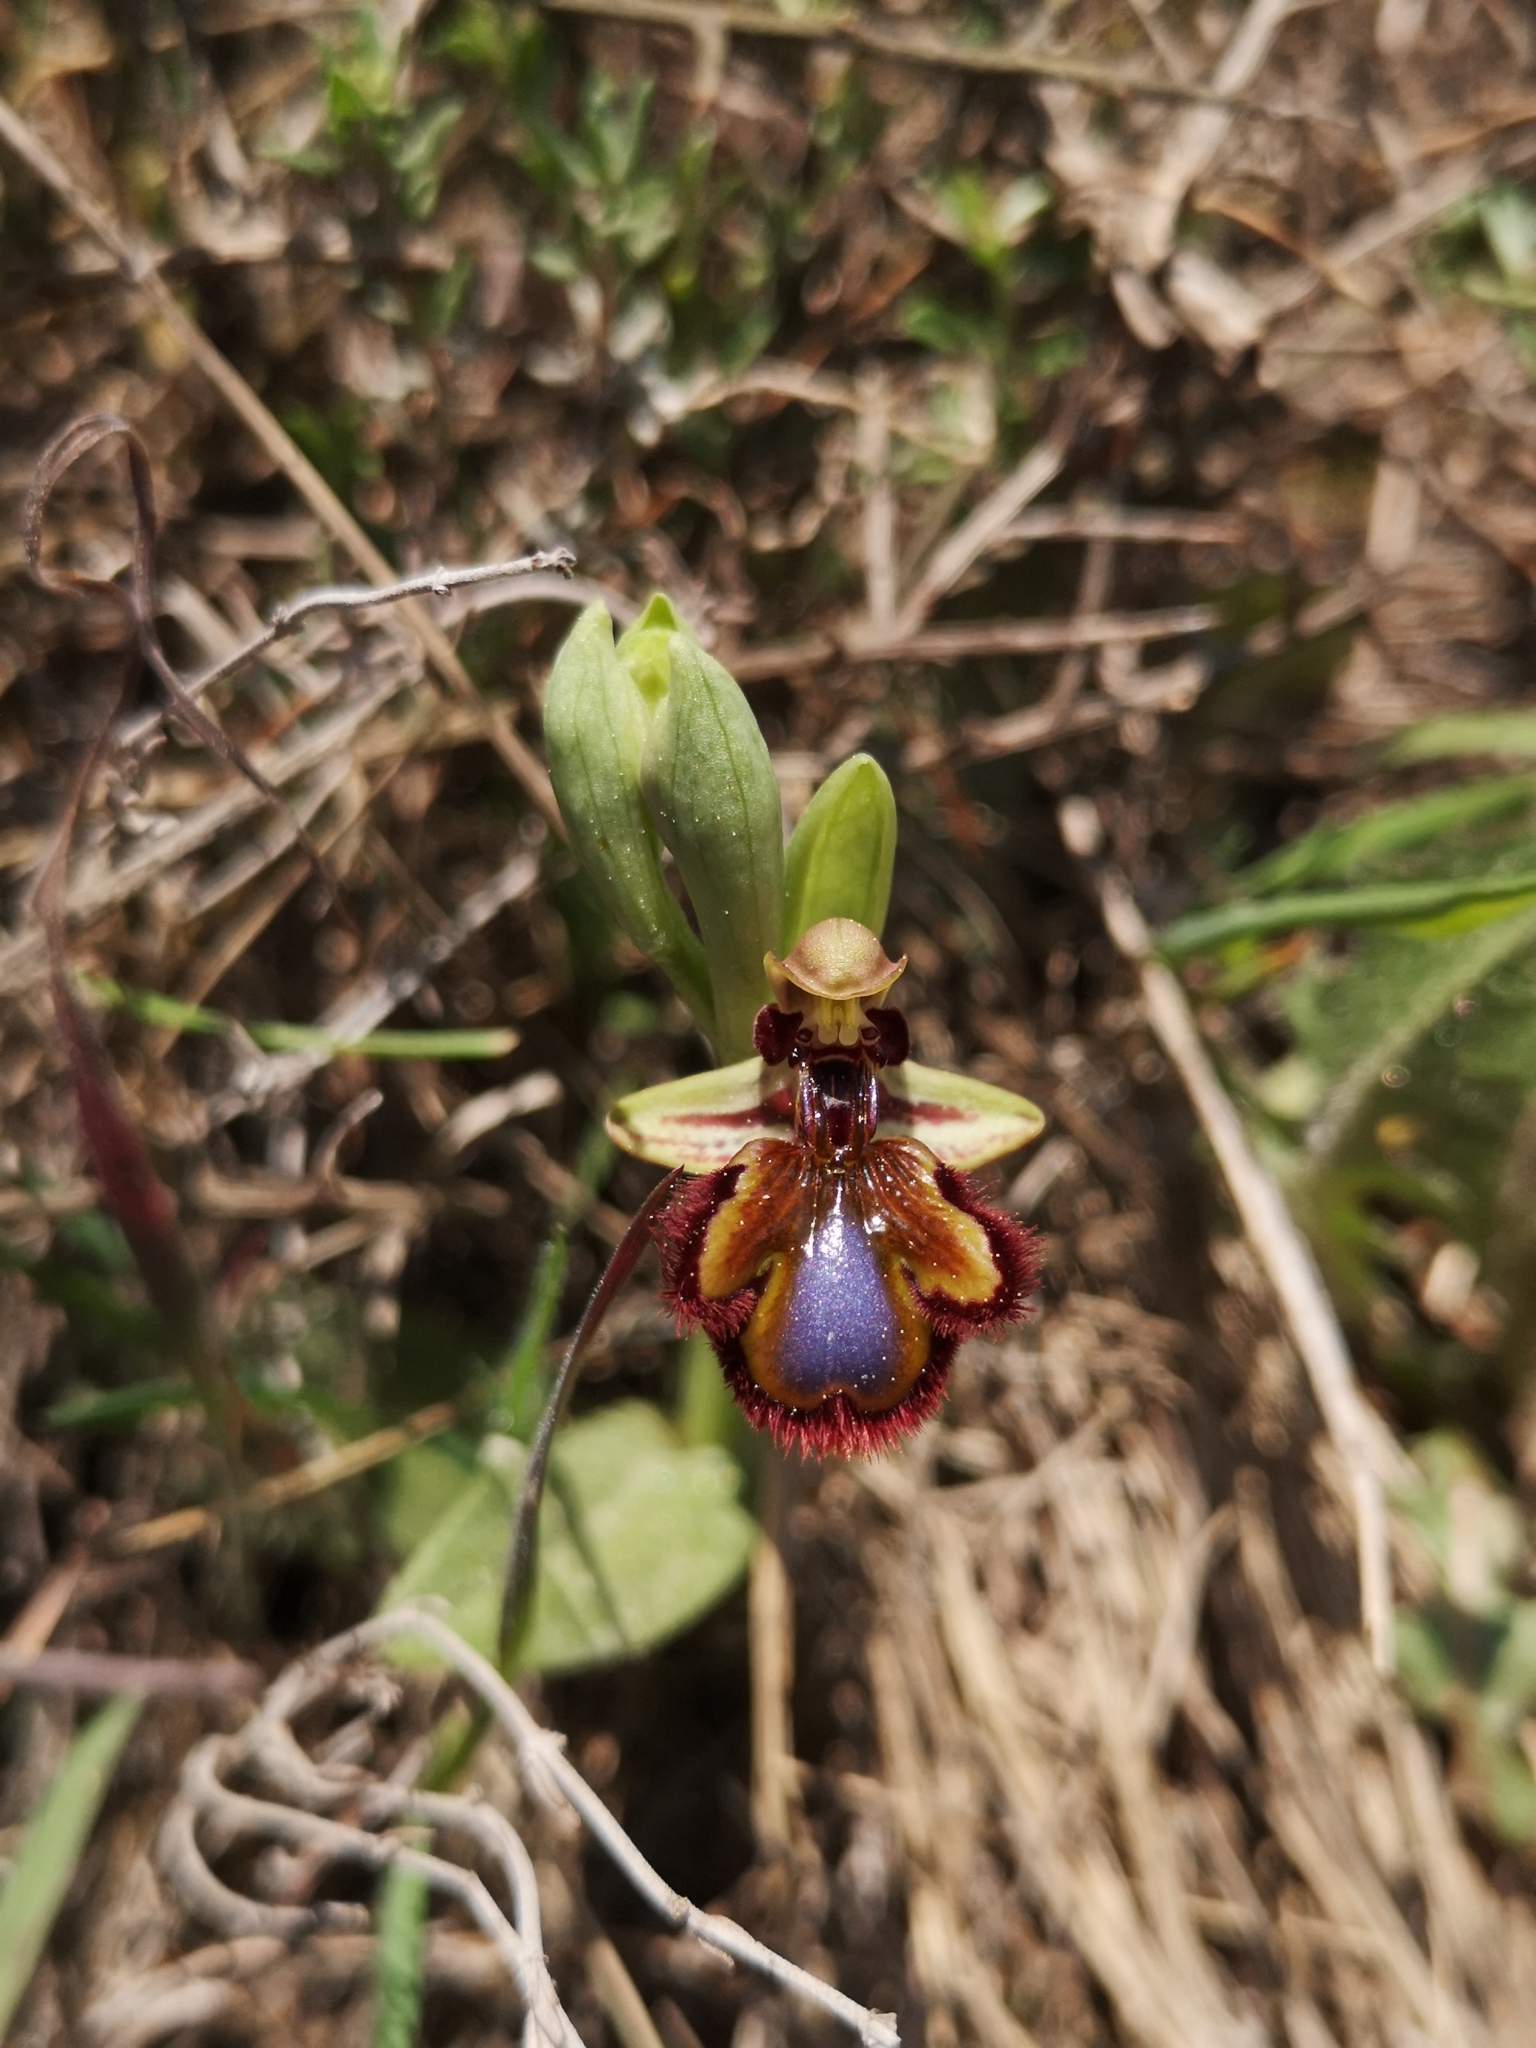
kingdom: Plantae
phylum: Tracheophyta
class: Liliopsida
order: Asparagales
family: Orchidaceae
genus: Ophrys
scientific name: Ophrys speculum
